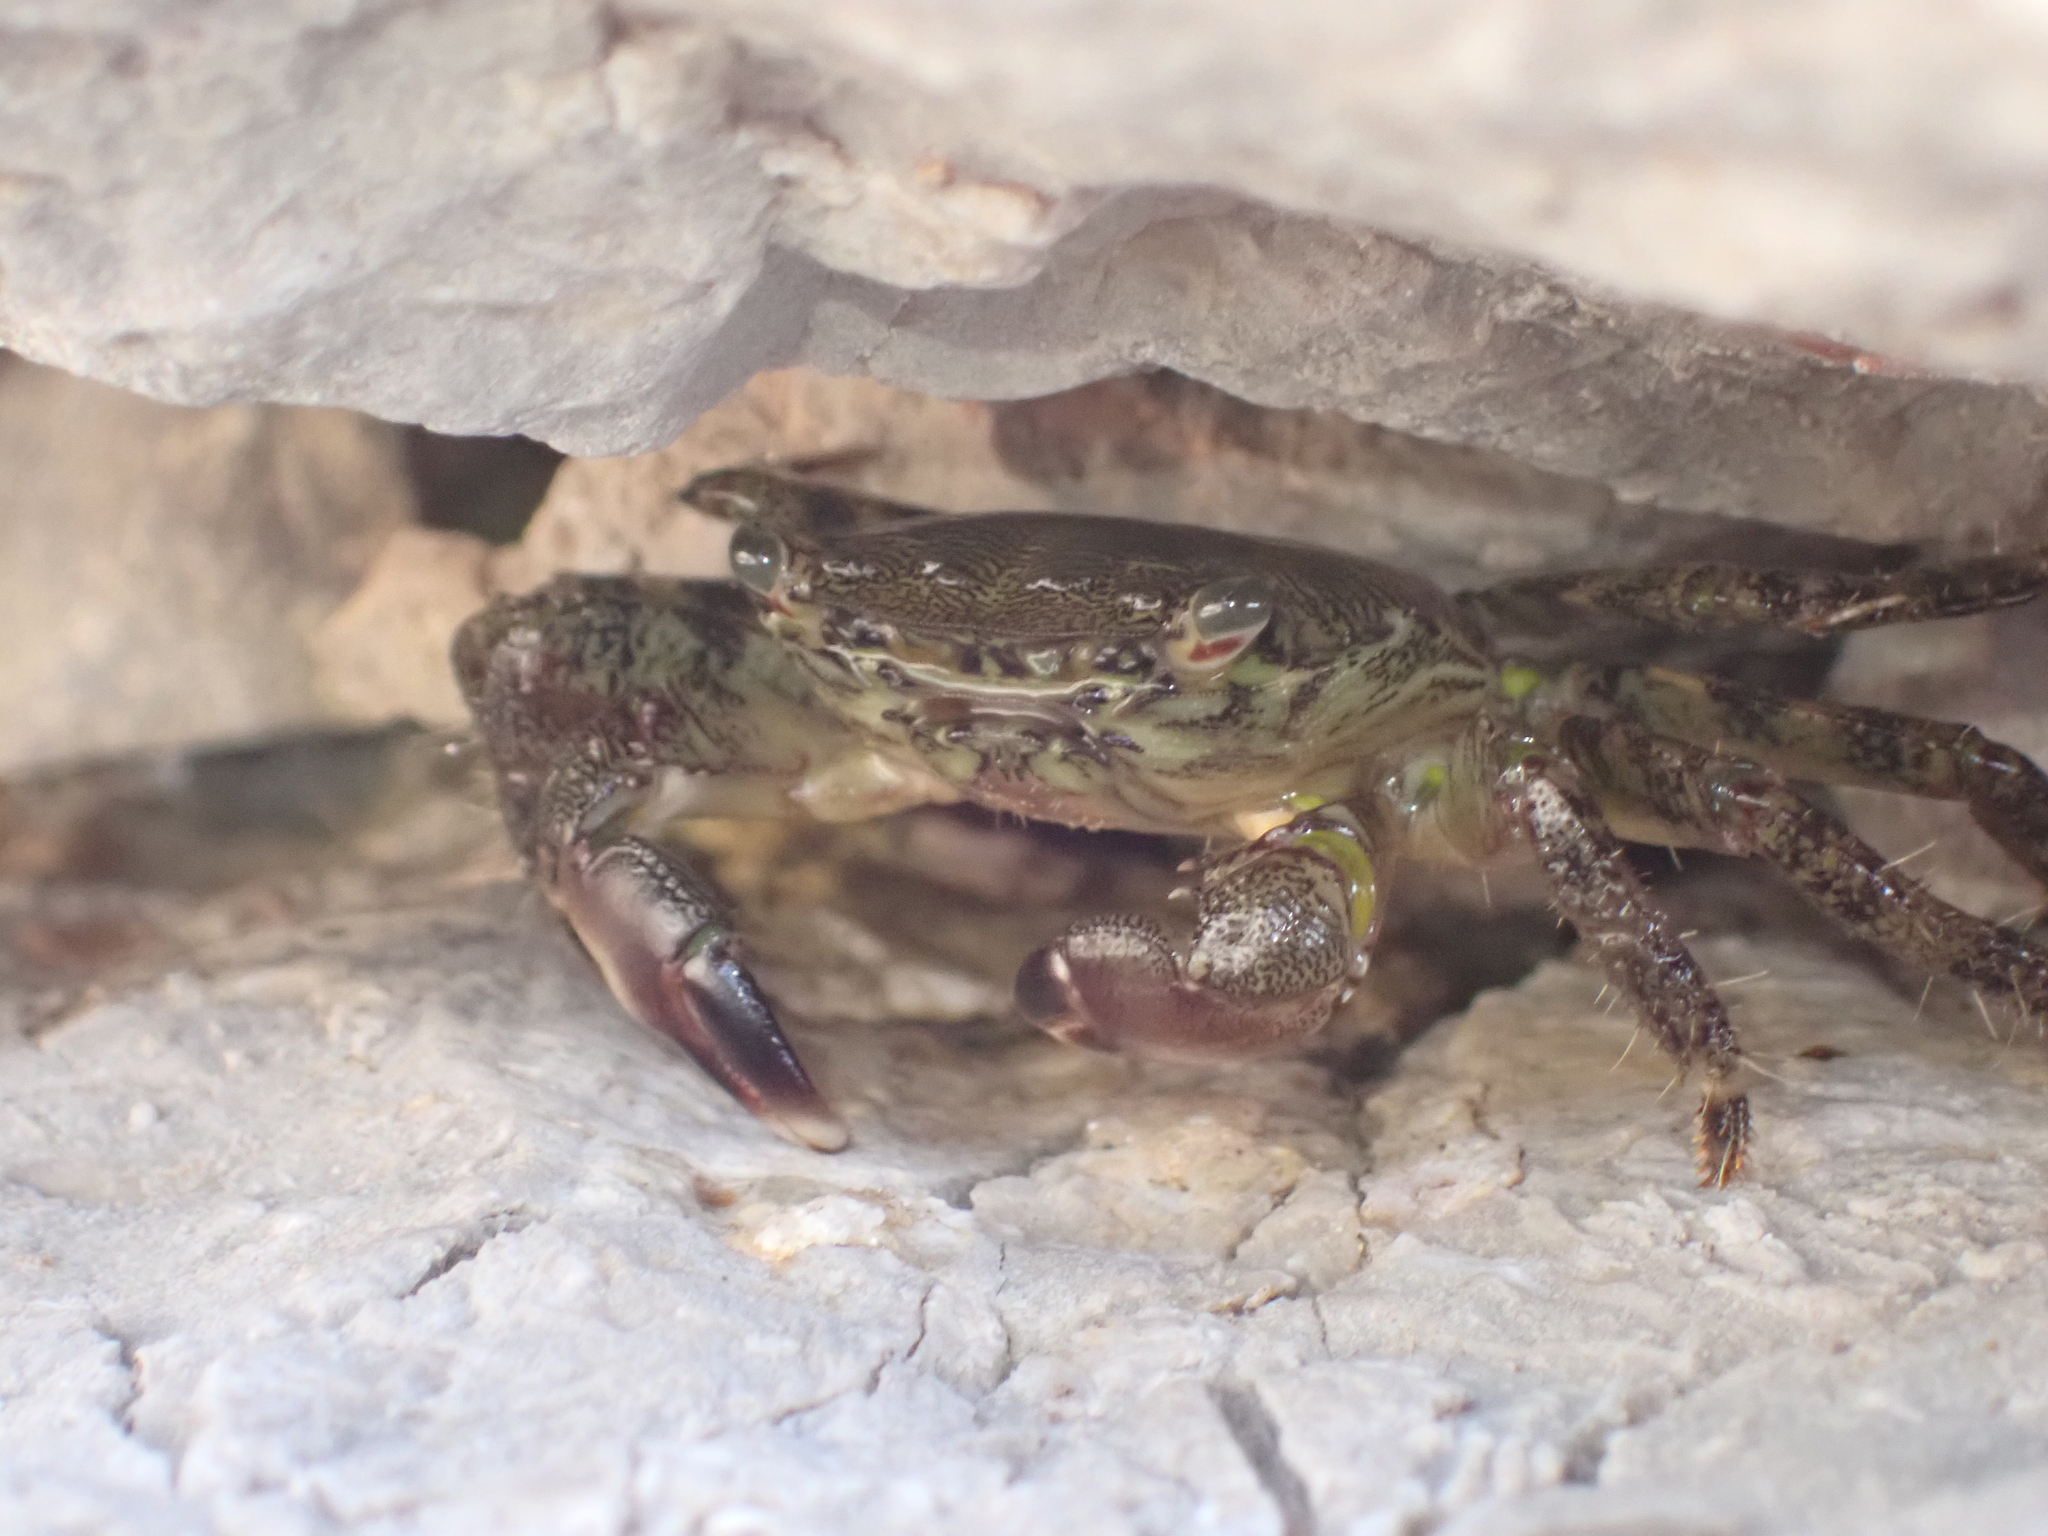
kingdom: Animalia
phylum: Arthropoda
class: Malacostraca
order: Decapoda
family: Grapsidae
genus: Pachygrapsus
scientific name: Pachygrapsus marmoratus
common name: Marbled rock crab
